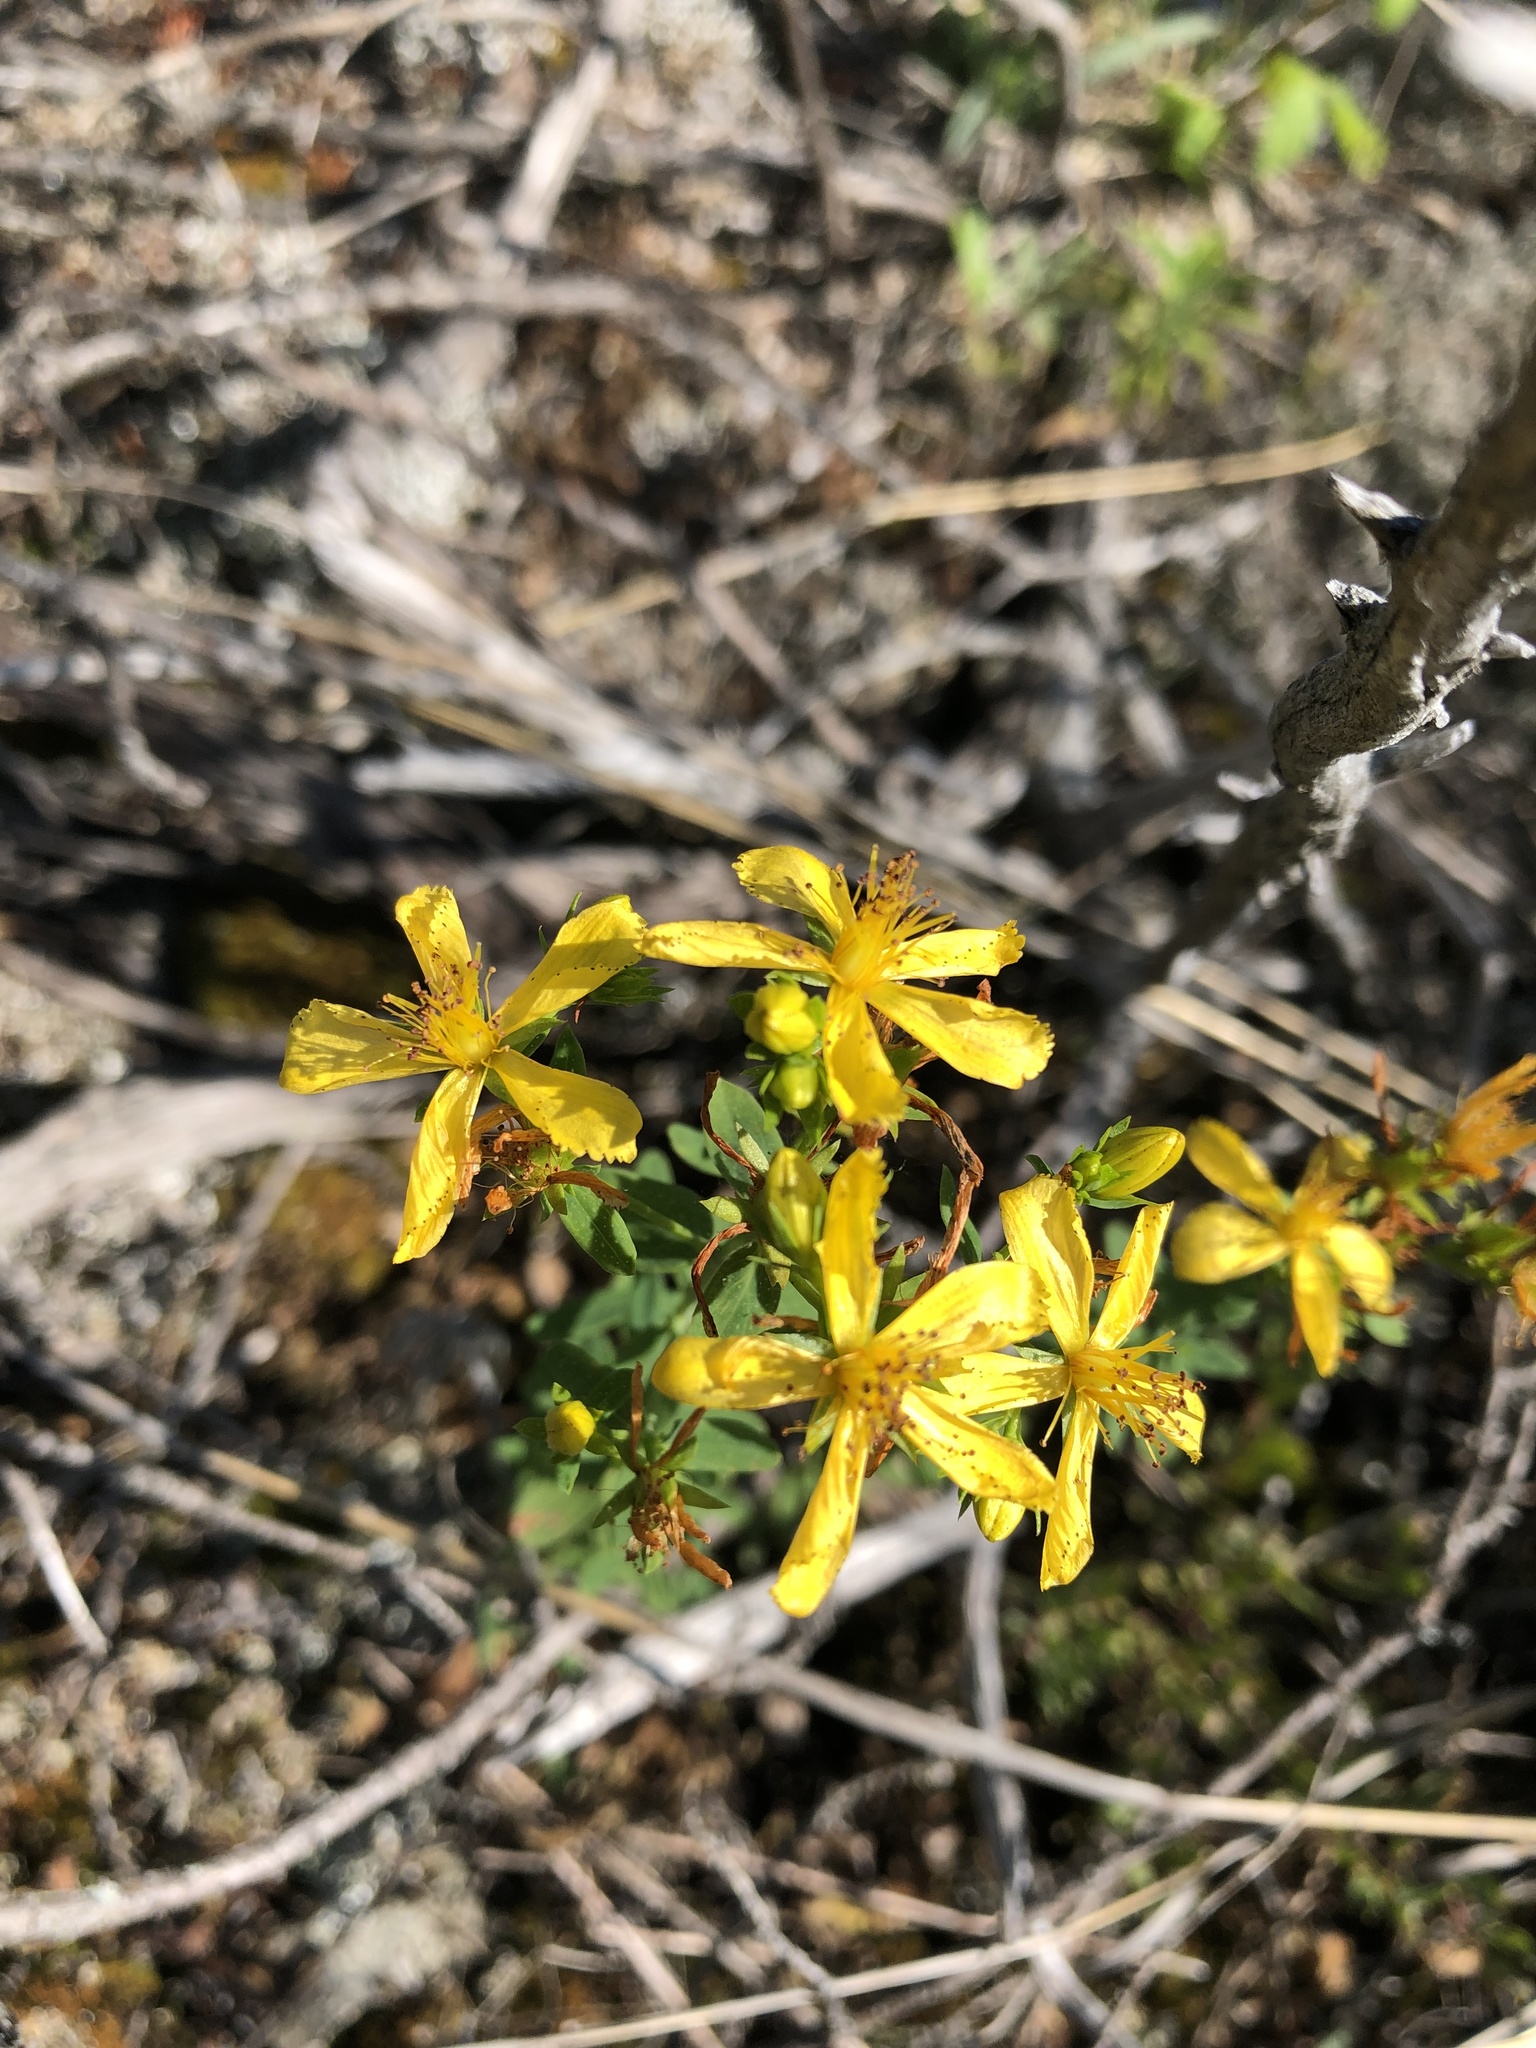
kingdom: Plantae
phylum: Tracheophyta
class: Magnoliopsida
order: Malpighiales
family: Hypericaceae
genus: Hypericum
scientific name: Hypericum perforatum
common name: Common st. johnswort
